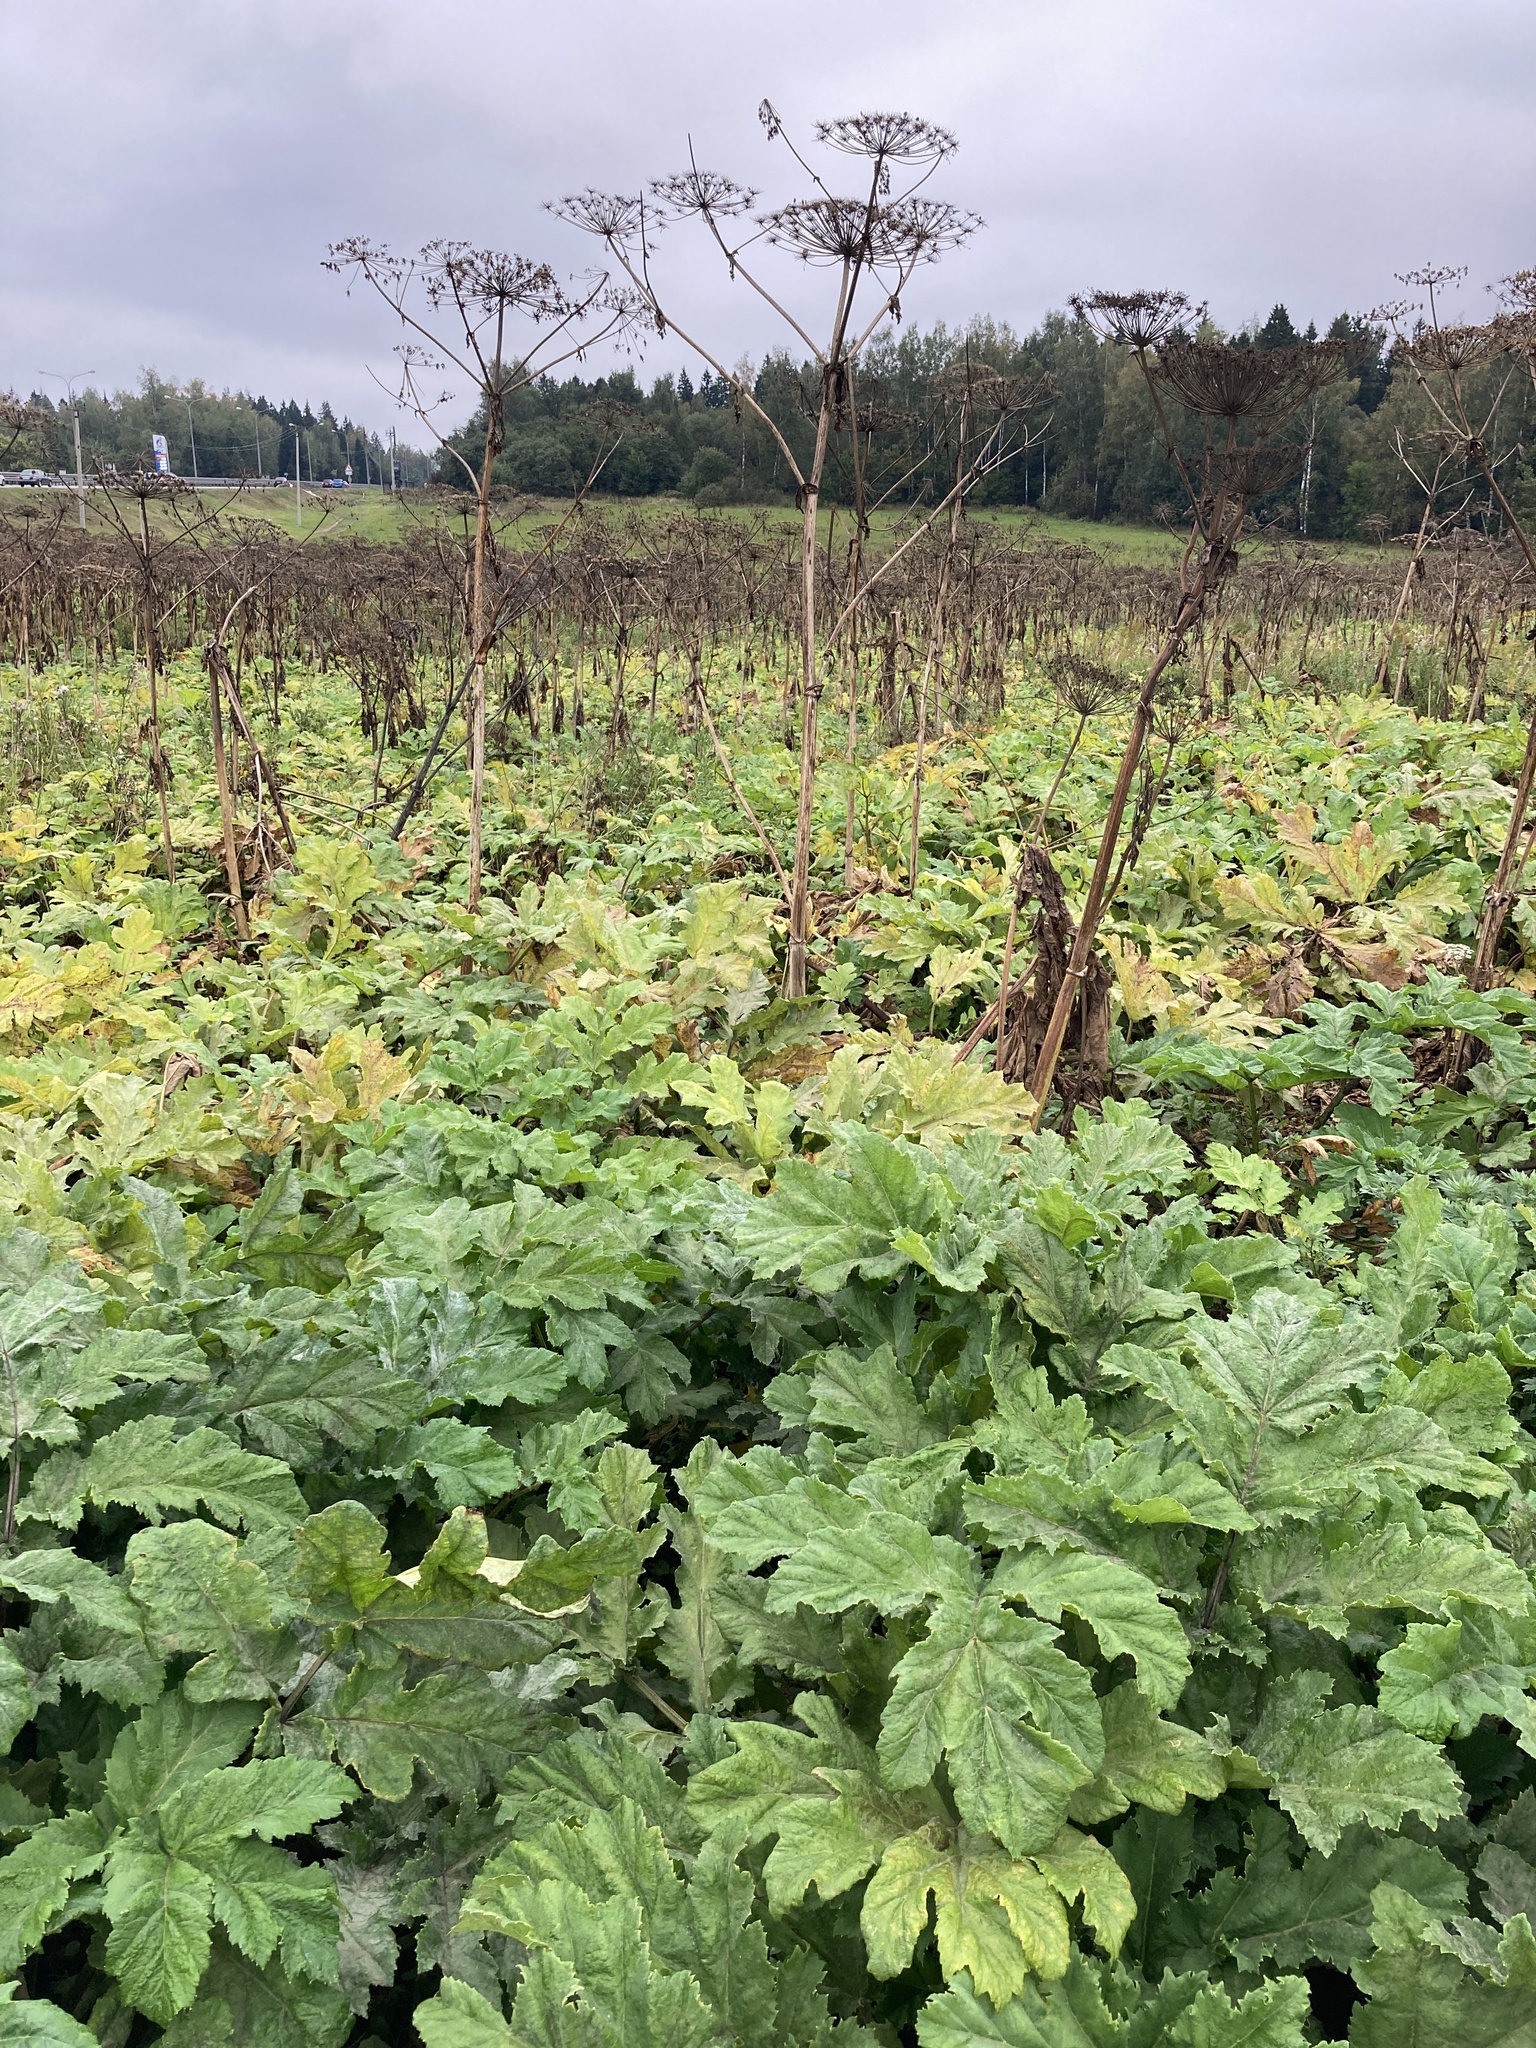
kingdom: Plantae
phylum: Tracheophyta
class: Magnoliopsida
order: Apiales
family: Apiaceae
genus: Heracleum
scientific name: Heracleum sosnowskyi
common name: Sosnowsky's hogweed
